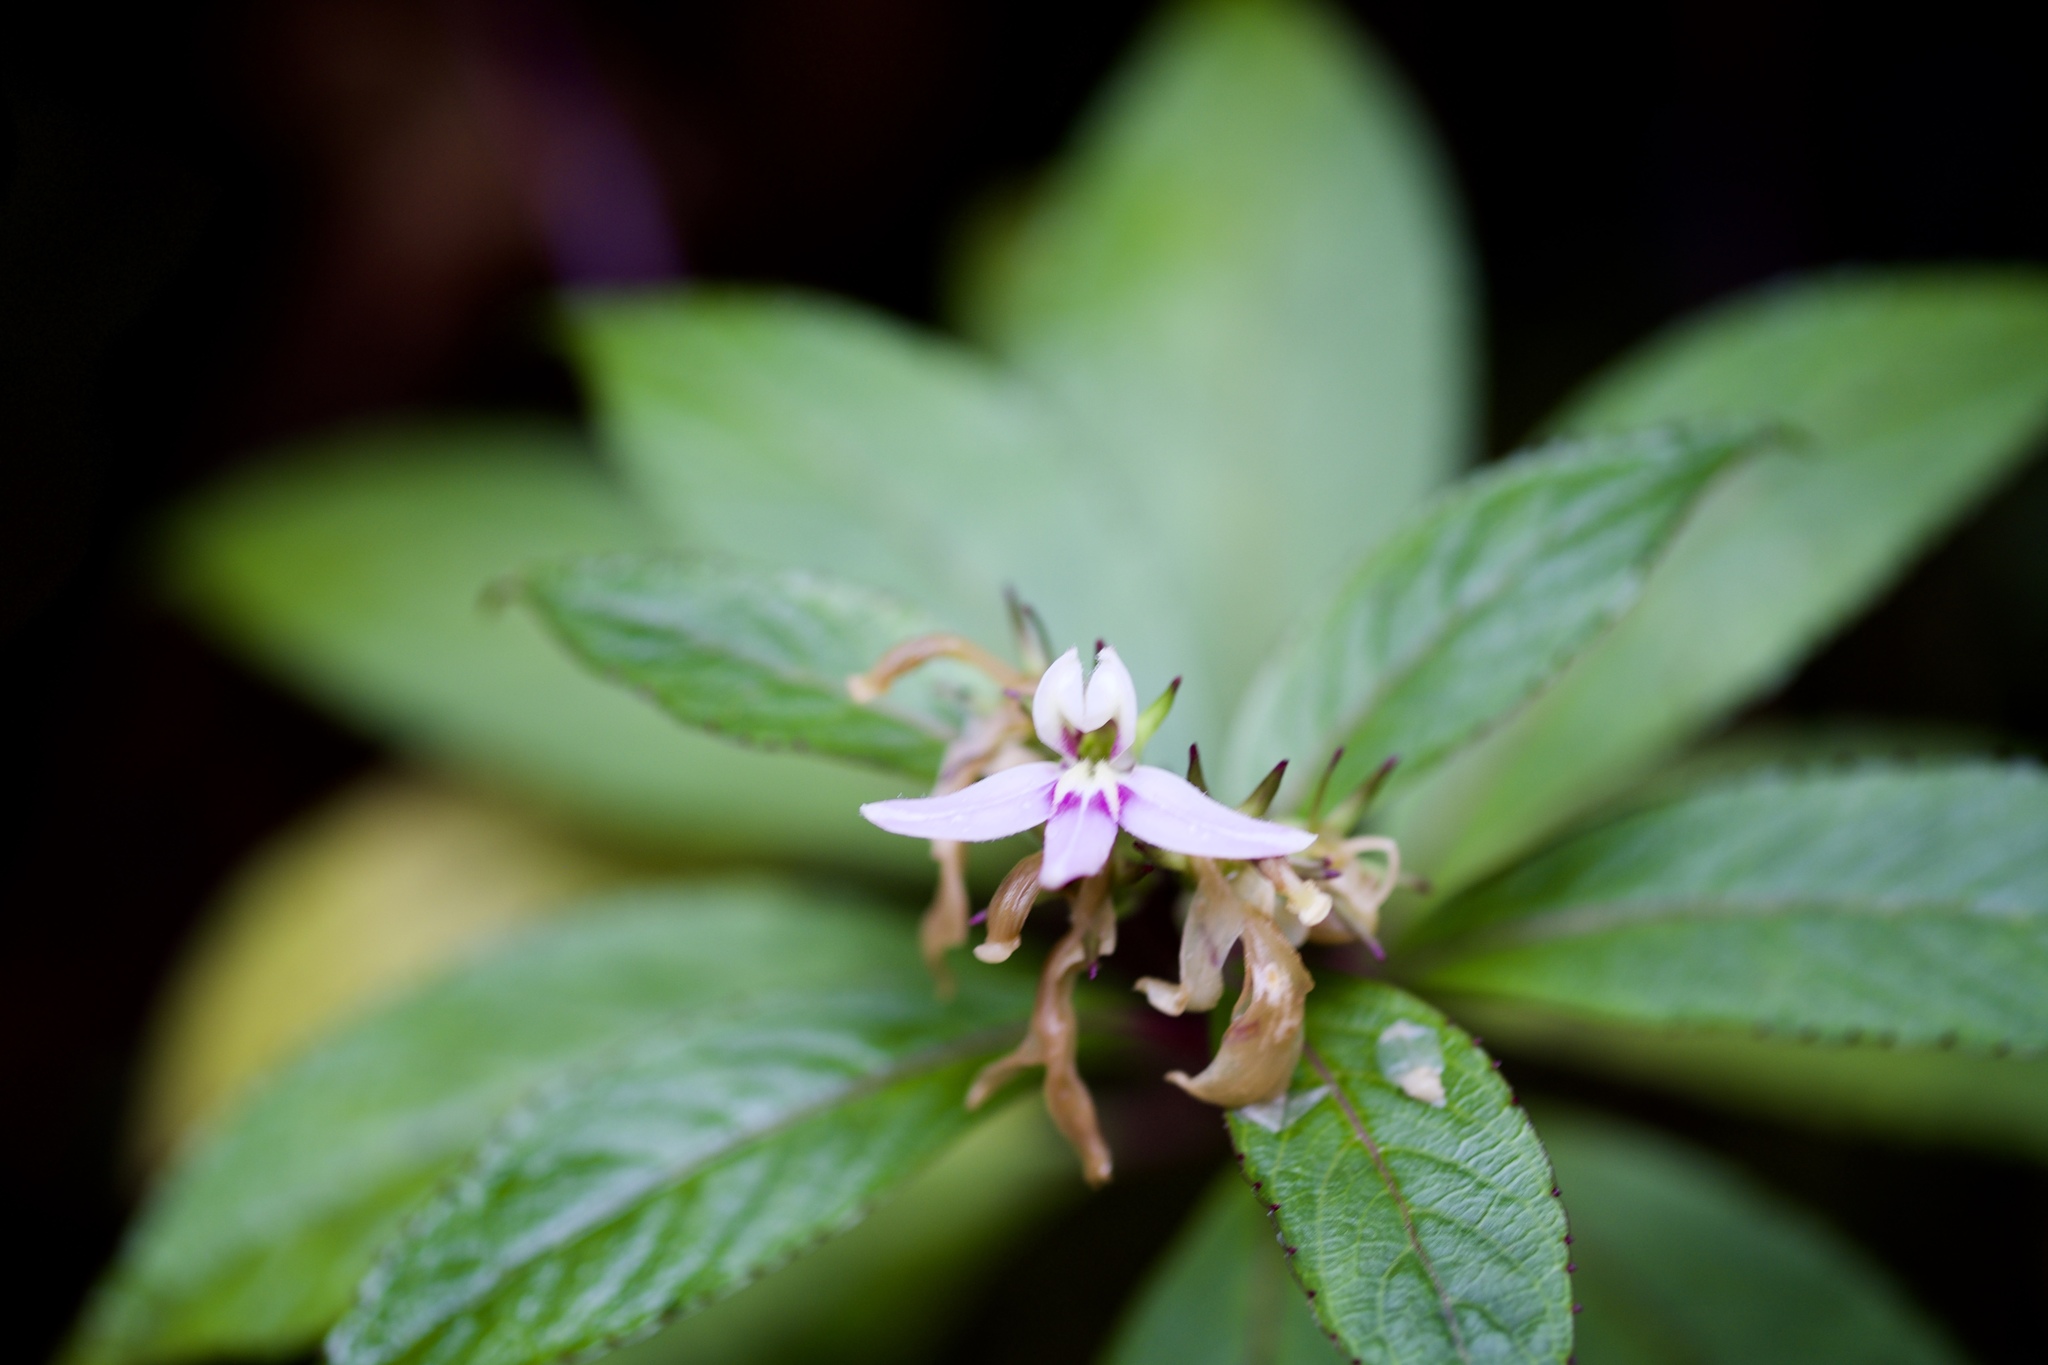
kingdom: Plantae
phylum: Tracheophyta
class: Magnoliopsida
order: Asterales
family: Campanulaceae
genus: Lobelia
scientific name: Lobelia borneensis
